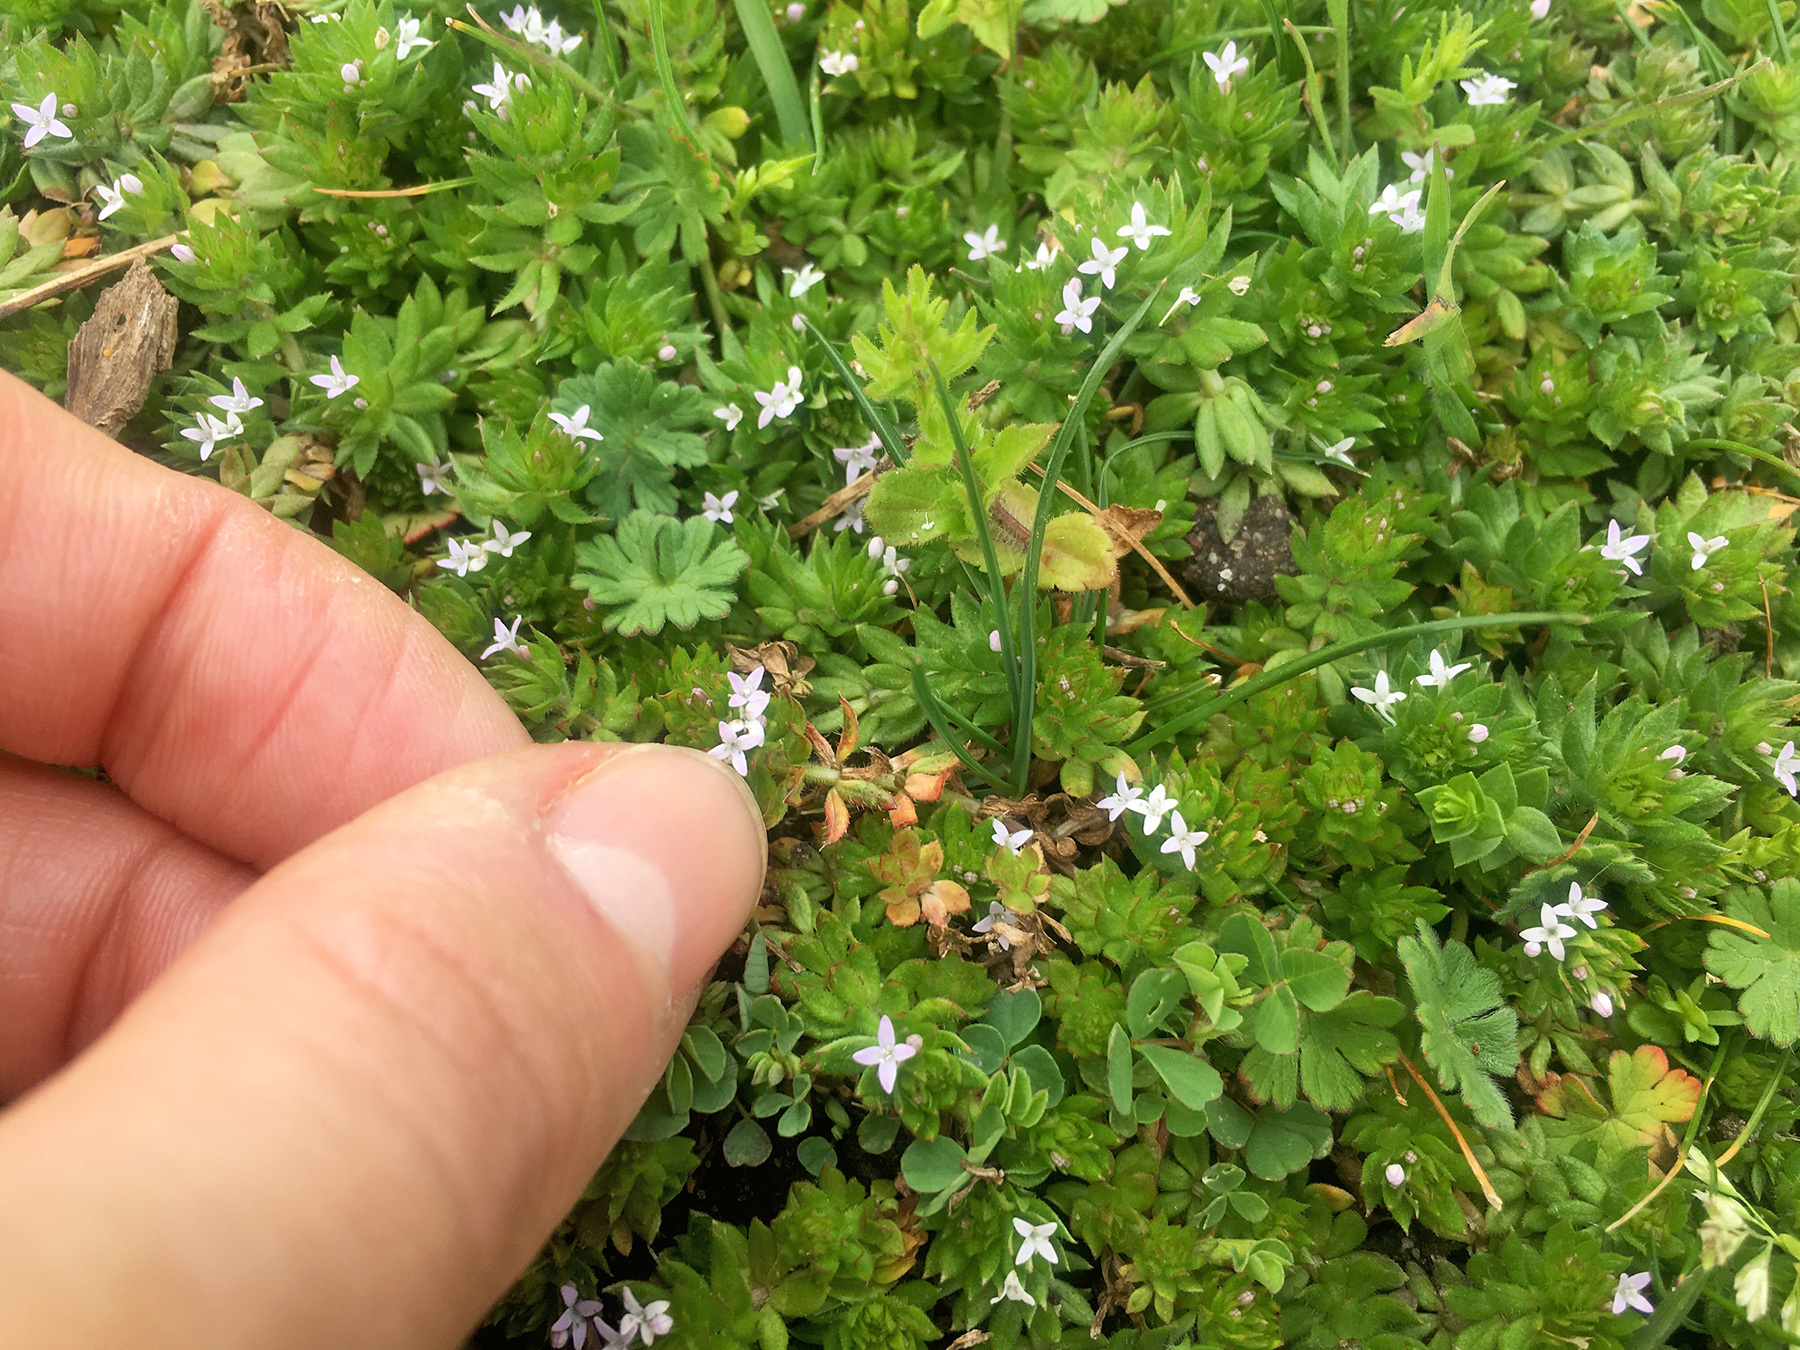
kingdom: Plantae
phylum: Tracheophyta
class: Magnoliopsida
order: Gentianales
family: Rubiaceae
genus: Sherardia
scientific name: Sherardia arvensis
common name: Field madder
